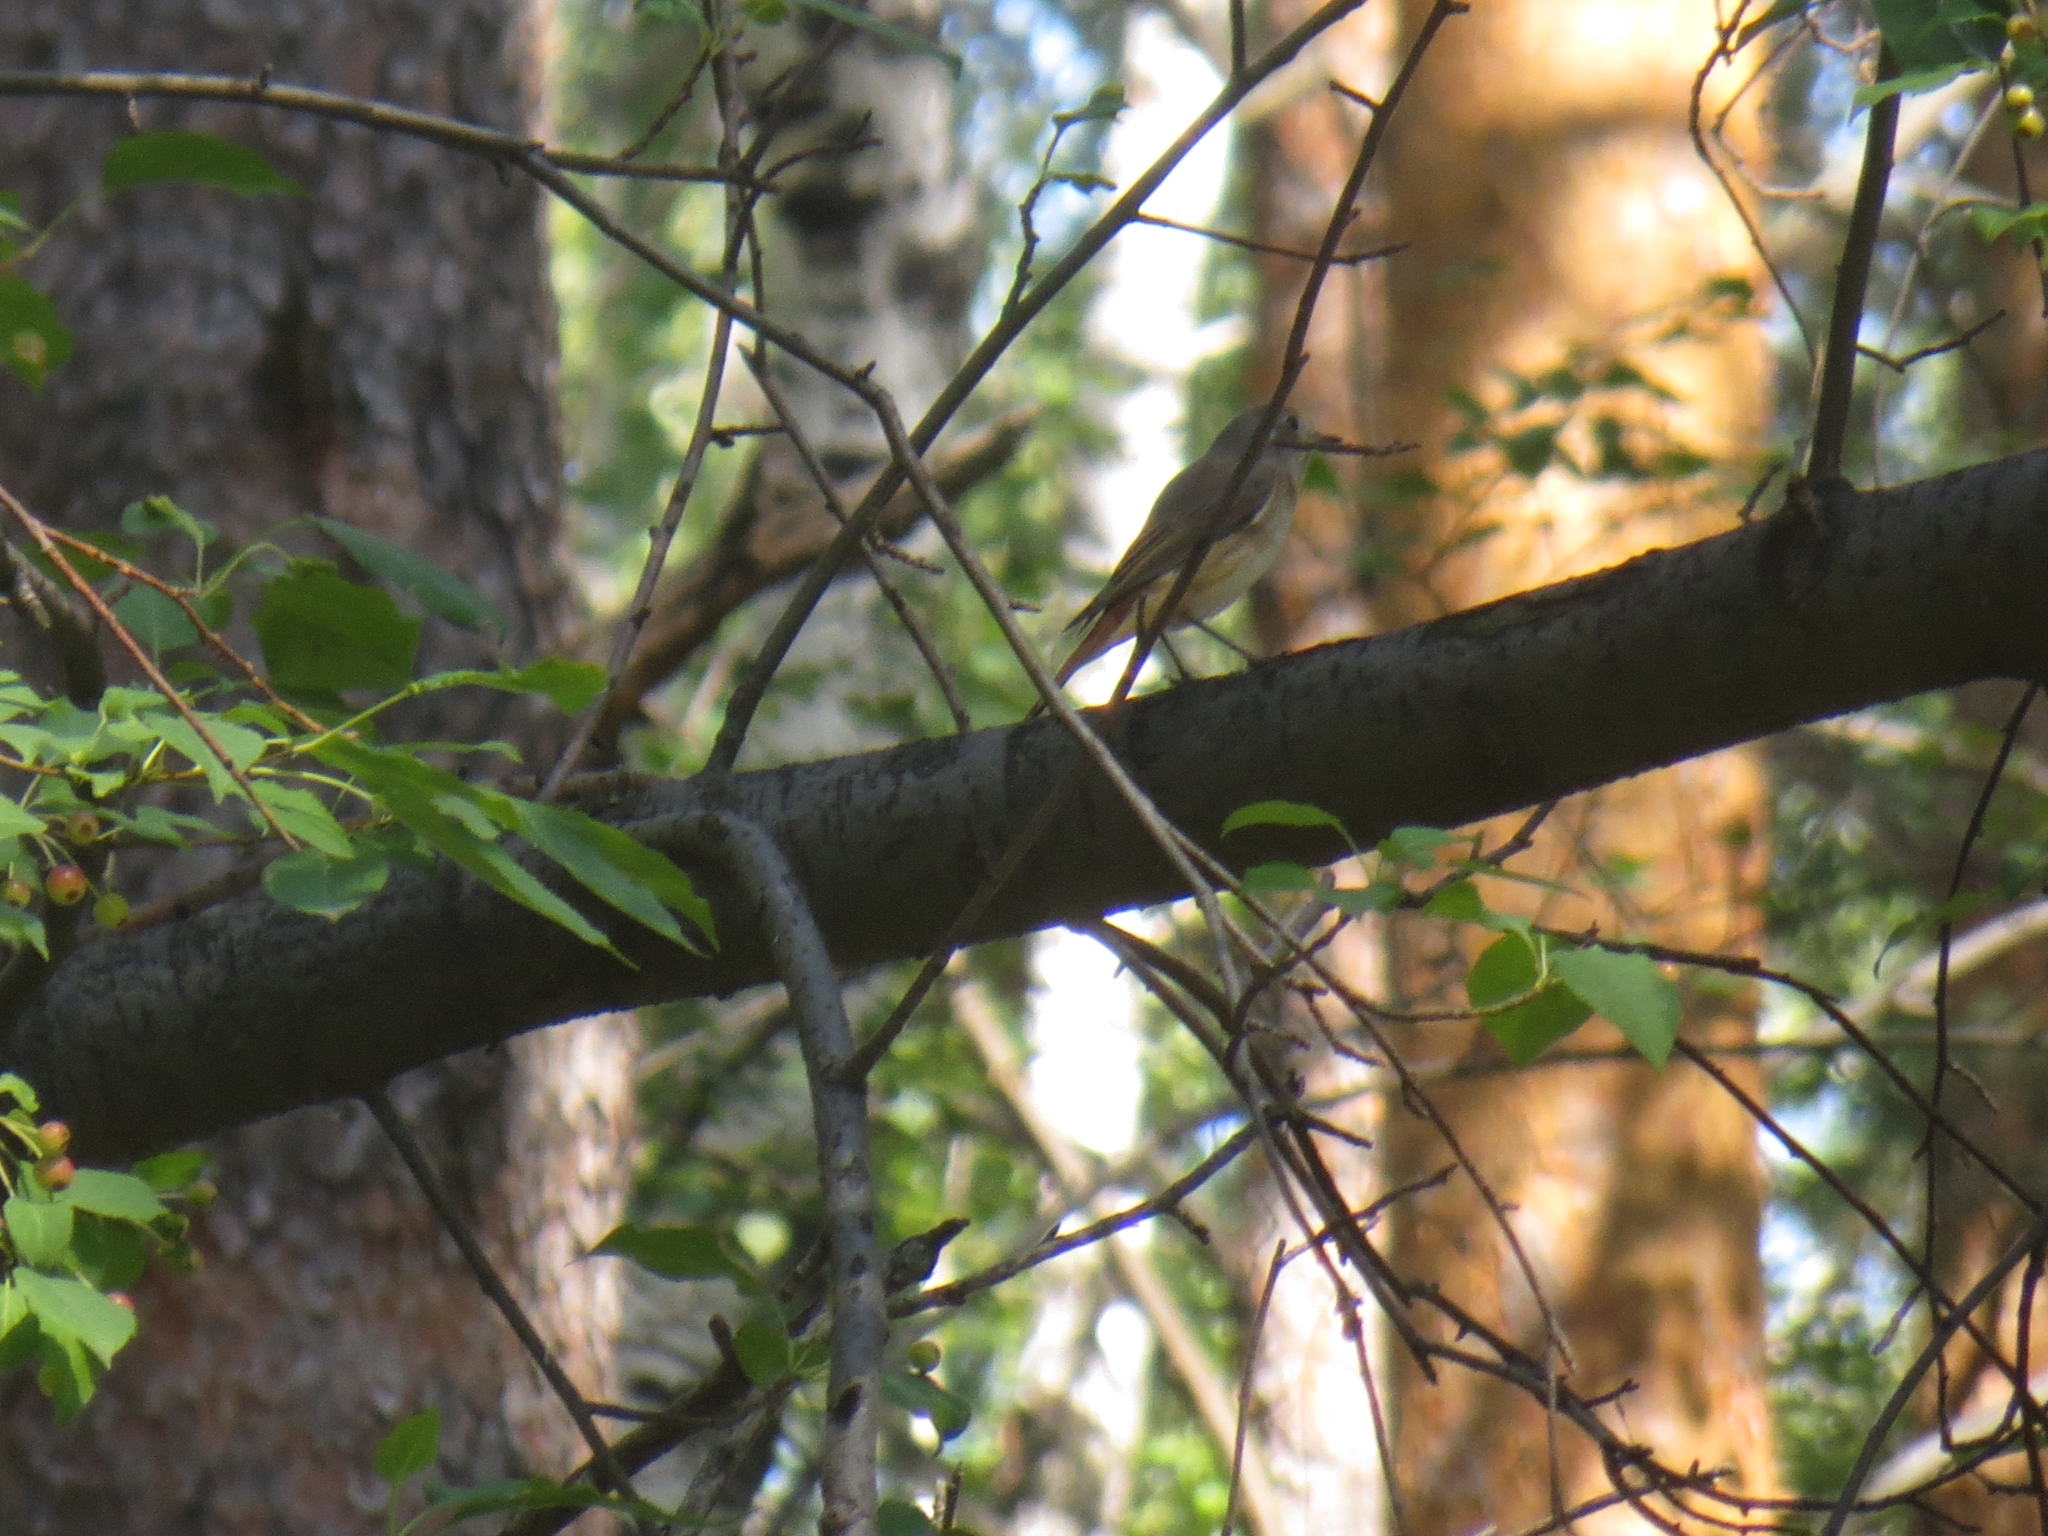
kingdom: Animalia
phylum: Chordata
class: Aves
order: Passeriformes
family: Muscicapidae
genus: Phoenicurus
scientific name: Phoenicurus phoenicurus
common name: Common redstart
